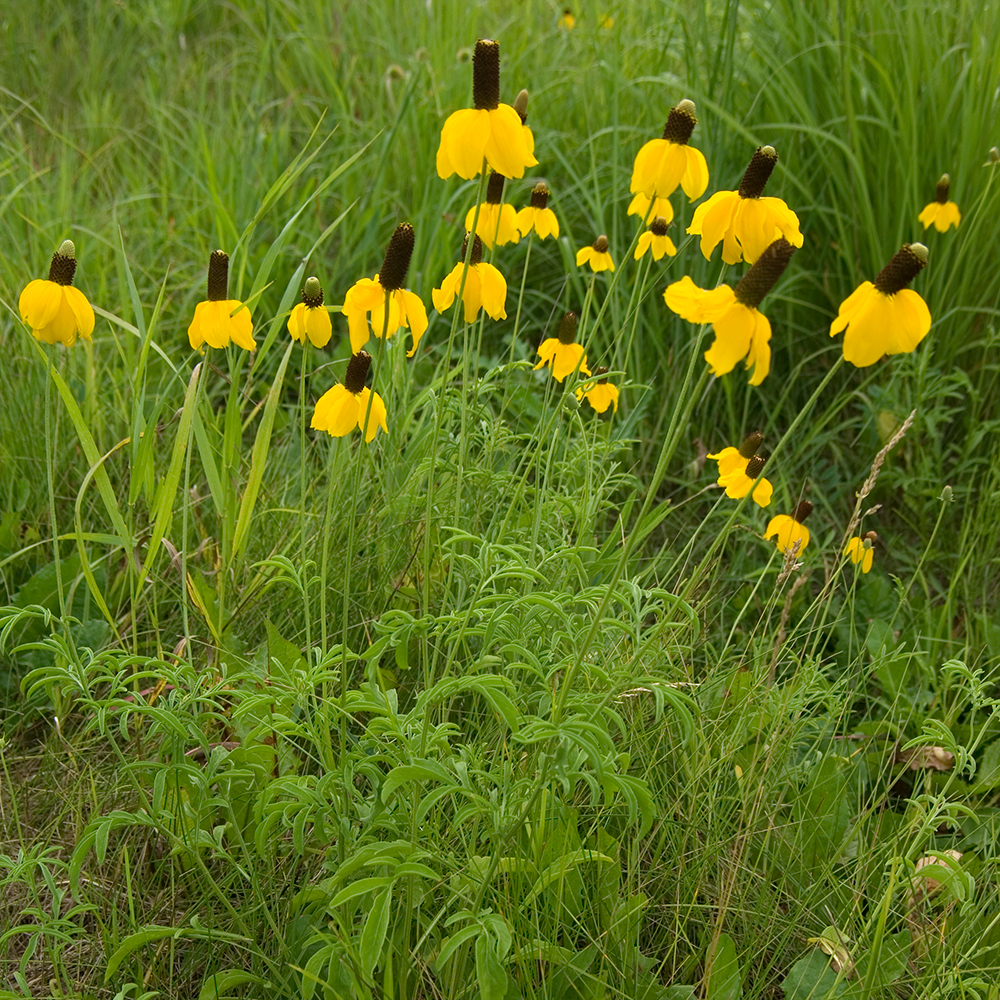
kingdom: Plantae
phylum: Tracheophyta
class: Magnoliopsida
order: Asterales
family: Asteraceae
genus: Ratibida
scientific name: Ratibida columnifera
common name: Prairie coneflower
